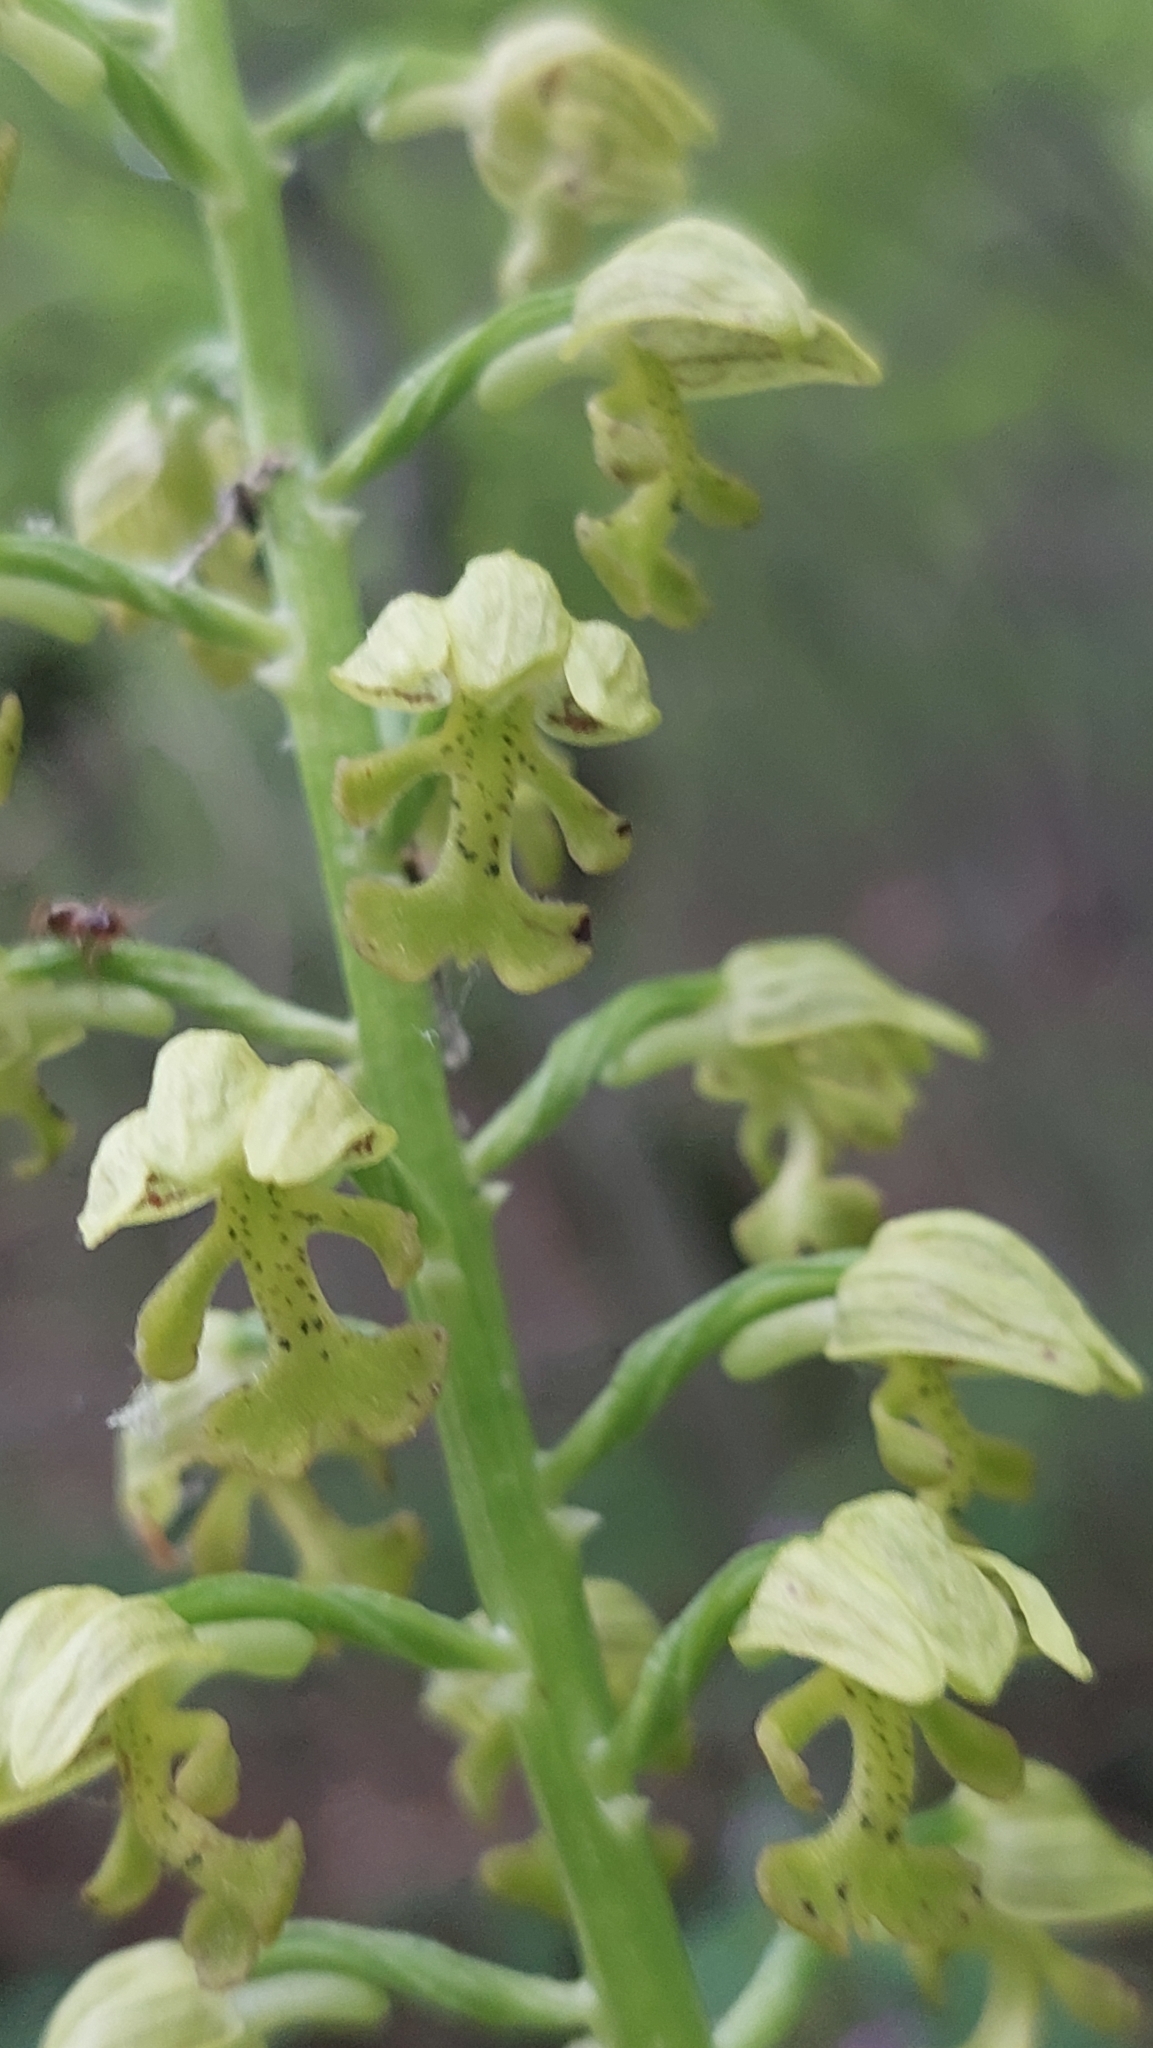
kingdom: Plantae
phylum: Tracheophyta
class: Liliopsida
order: Asparagales
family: Orchidaceae
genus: Orchis
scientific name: Orchis punctulata
